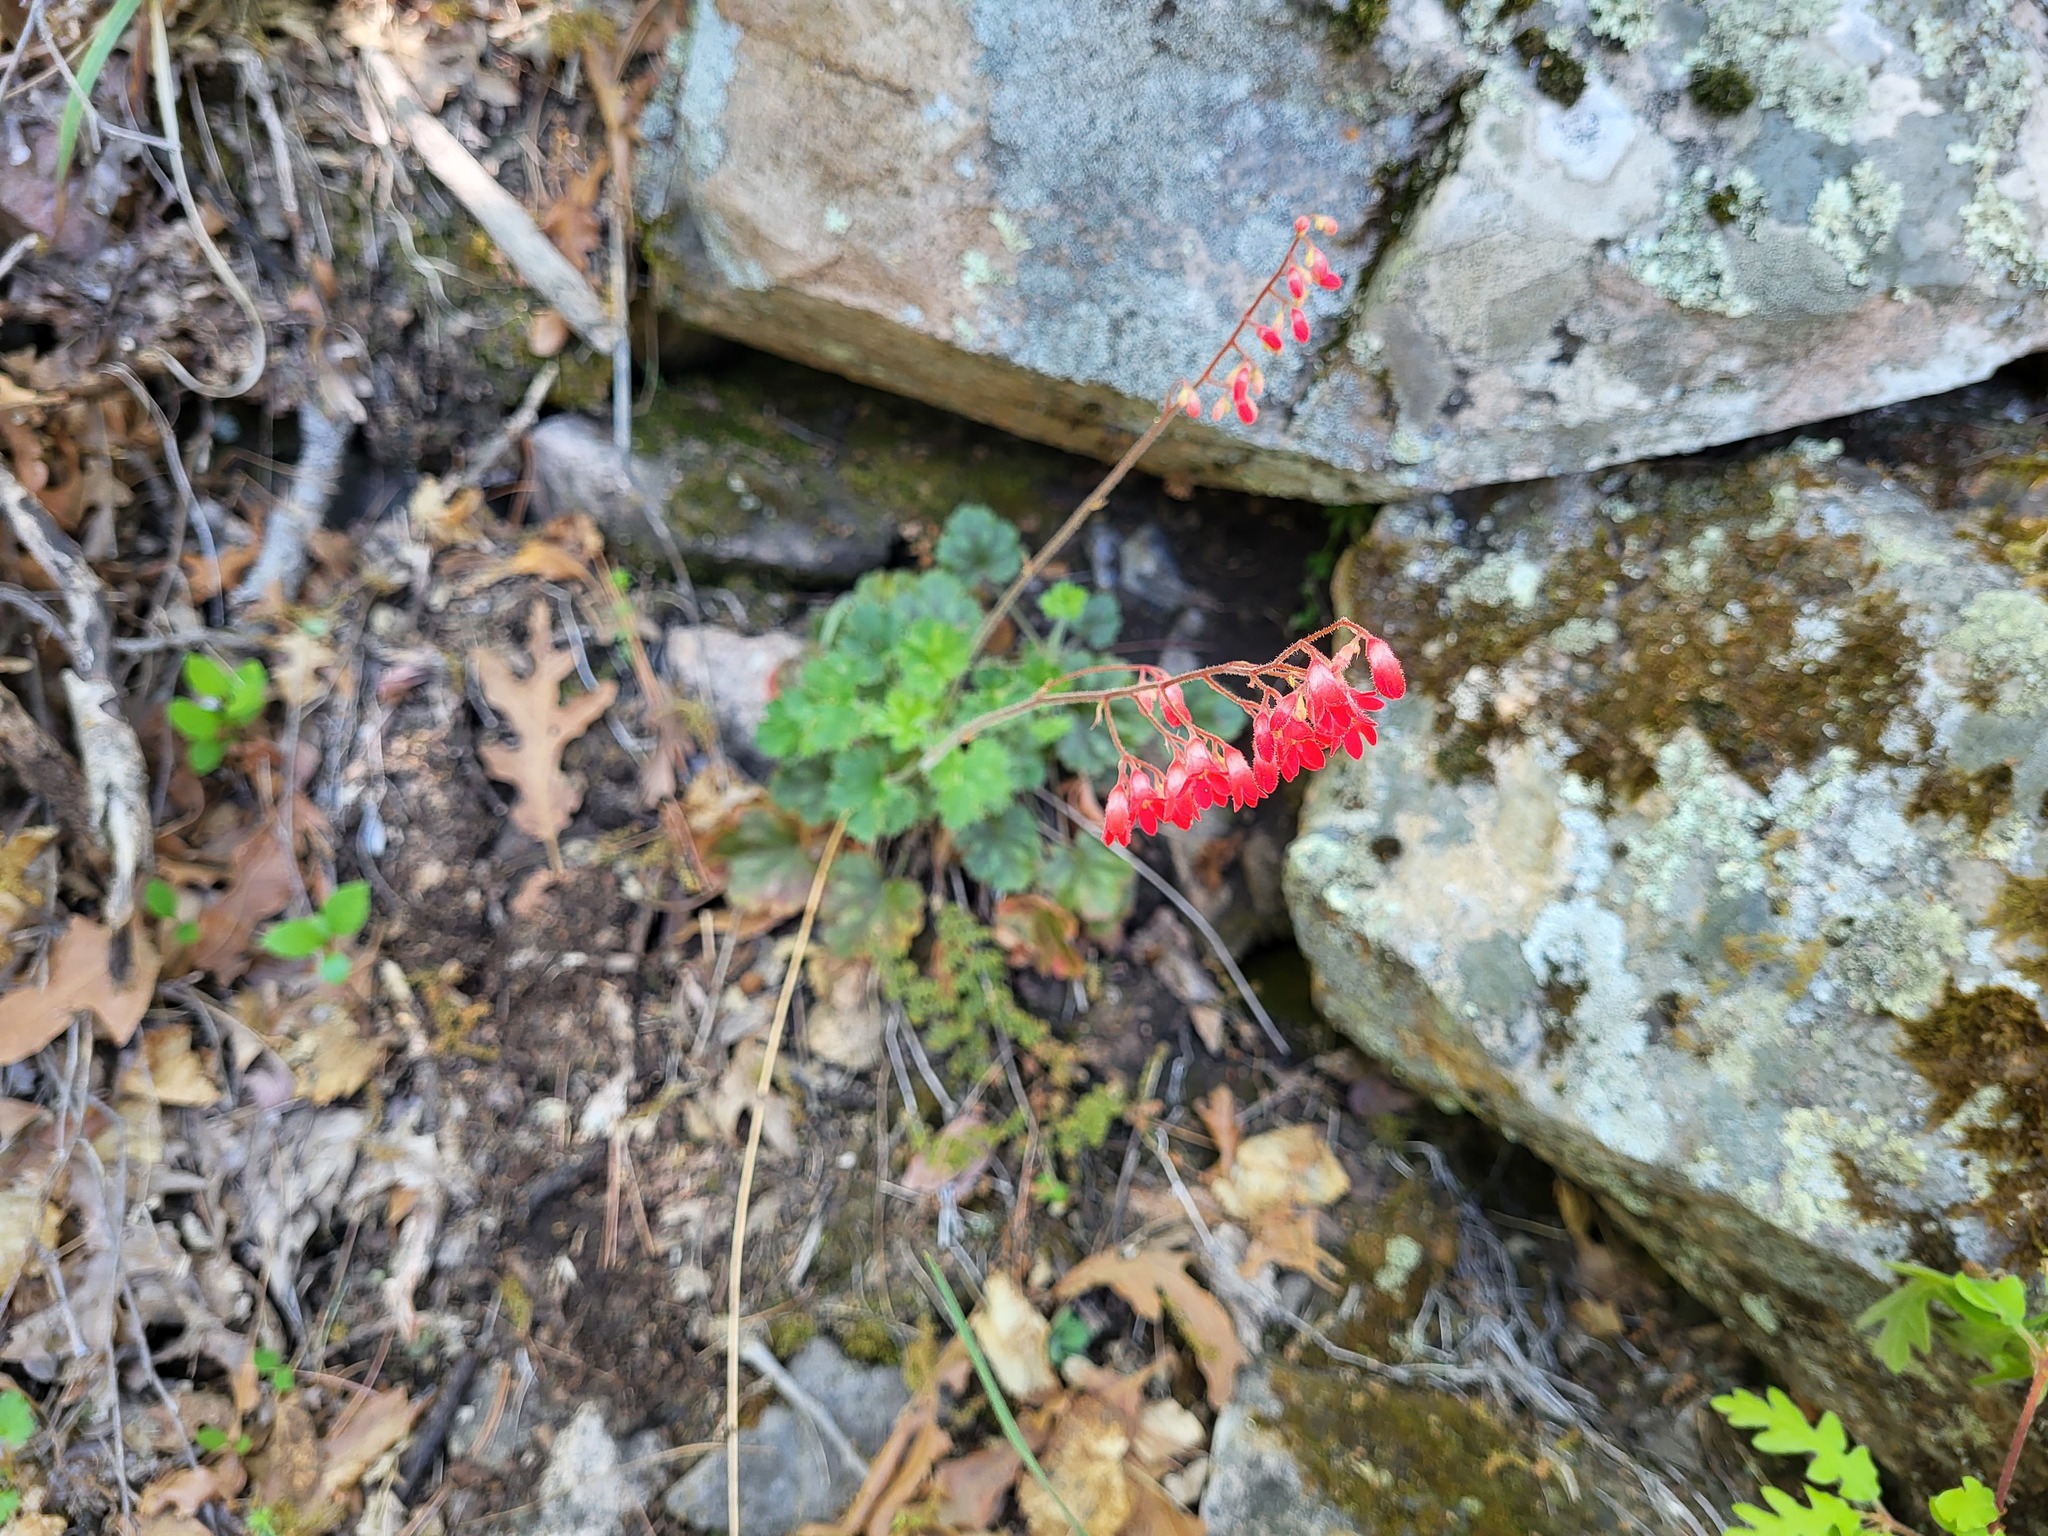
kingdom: Plantae
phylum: Tracheophyta
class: Magnoliopsida
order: Saxifragales
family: Saxifragaceae
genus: Heuchera
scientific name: Heuchera sanguinea
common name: Coralbells
